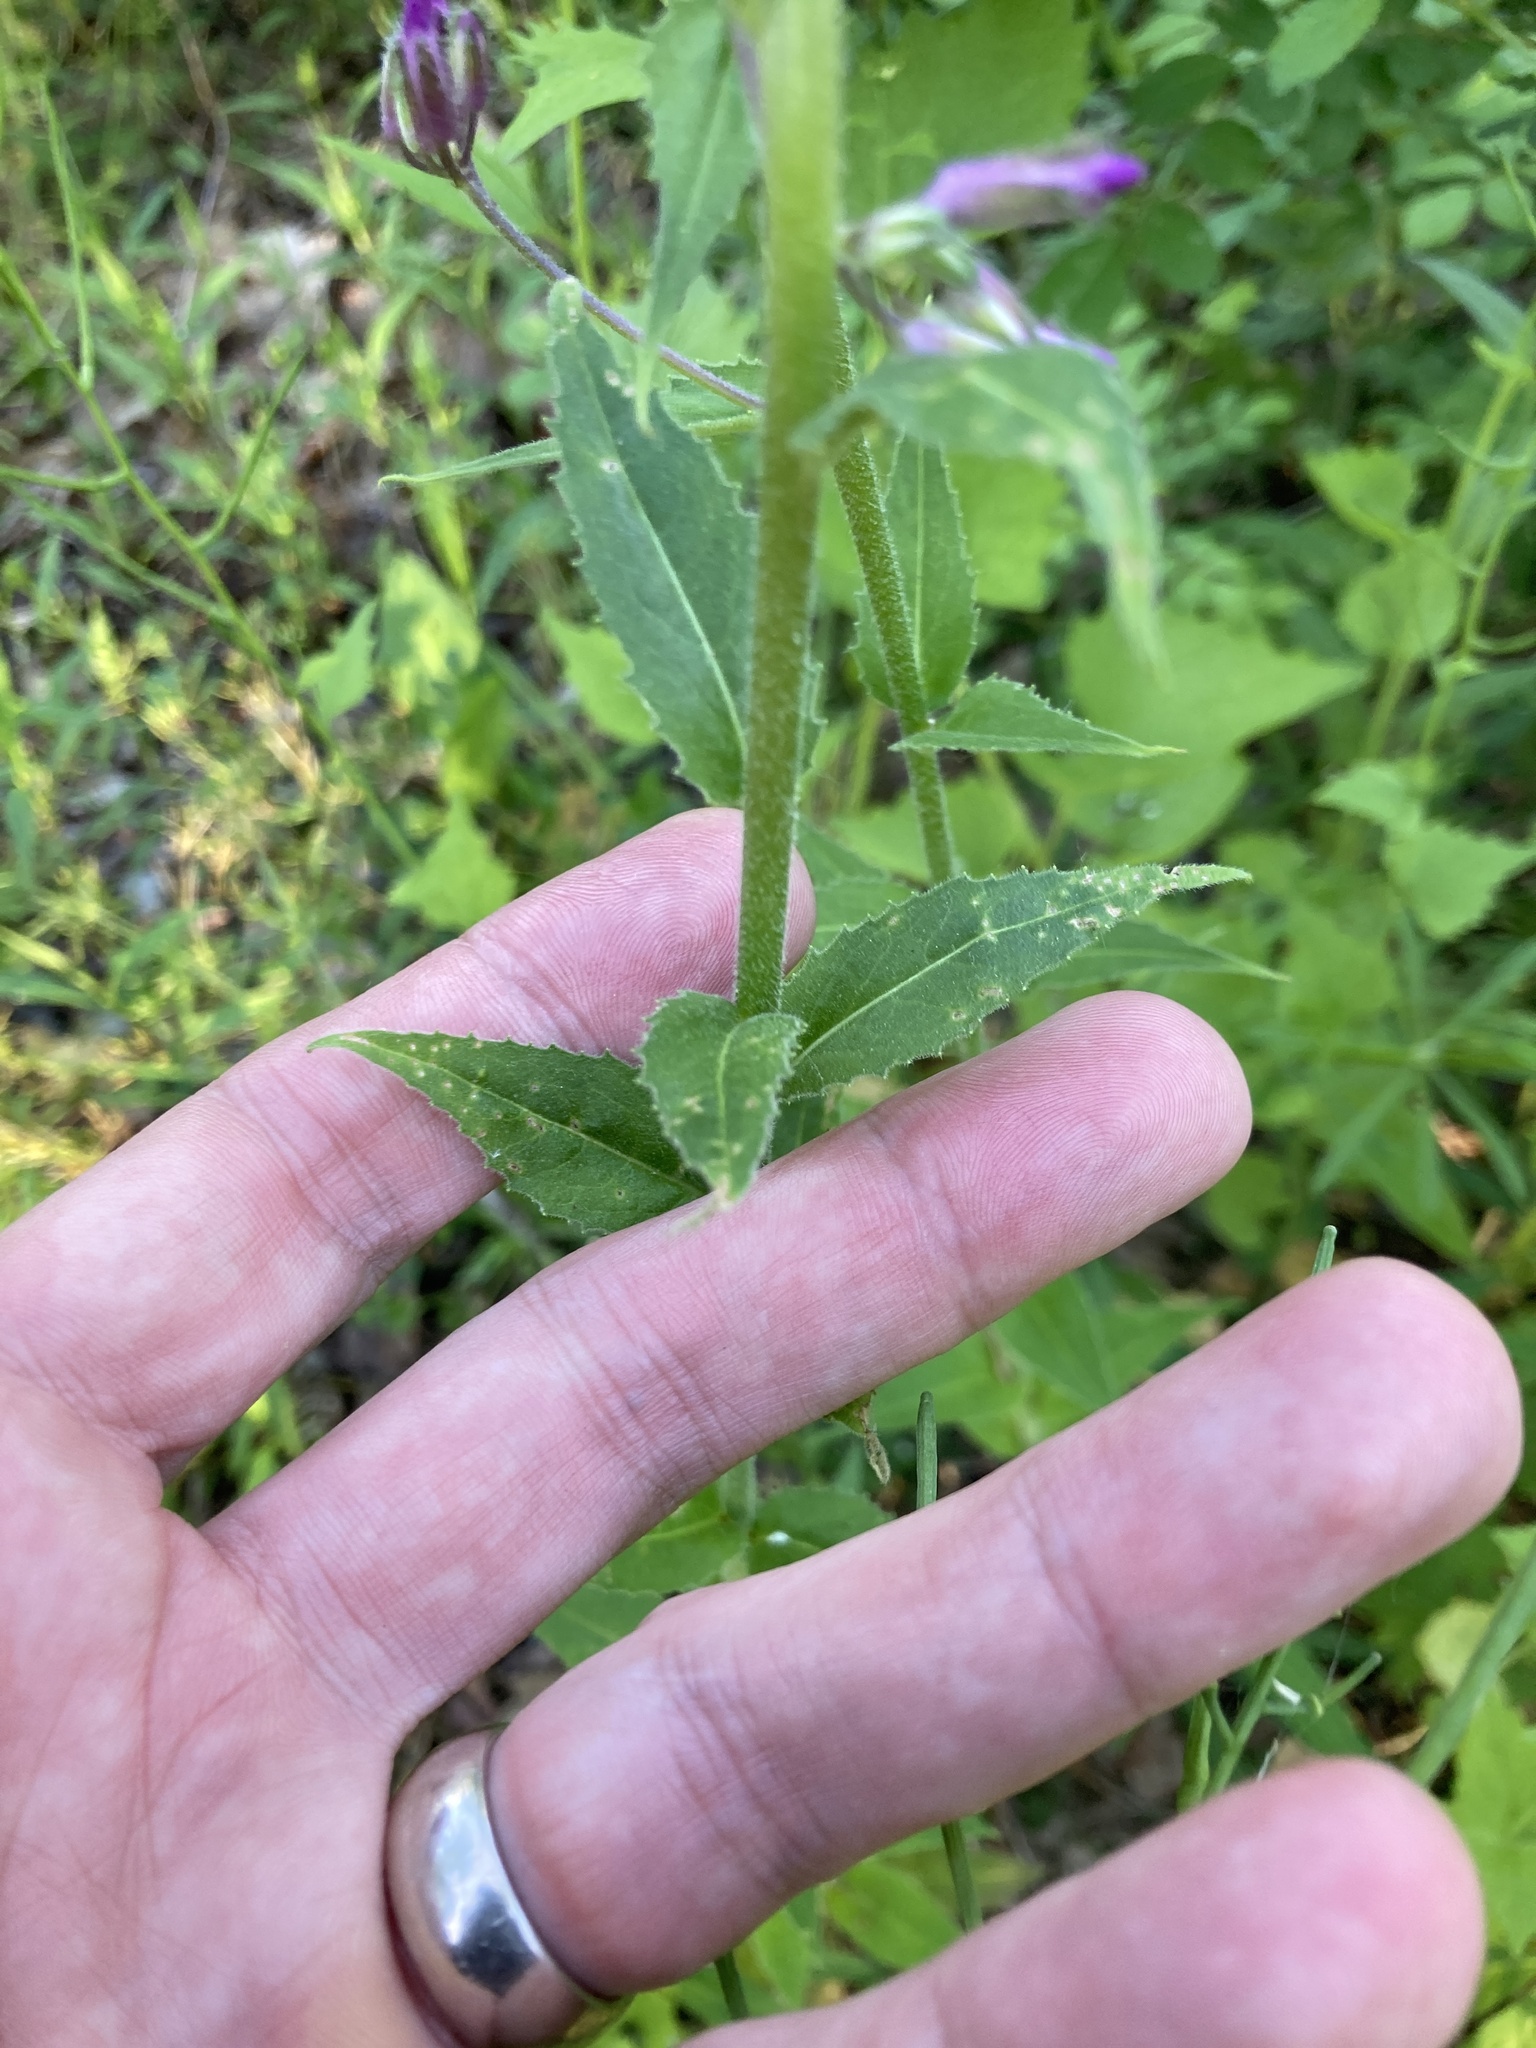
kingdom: Plantae
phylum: Tracheophyta
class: Magnoliopsida
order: Brassicales
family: Brassicaceae
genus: Hesperis
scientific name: Hesperis matronalis
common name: Dame's-violet
